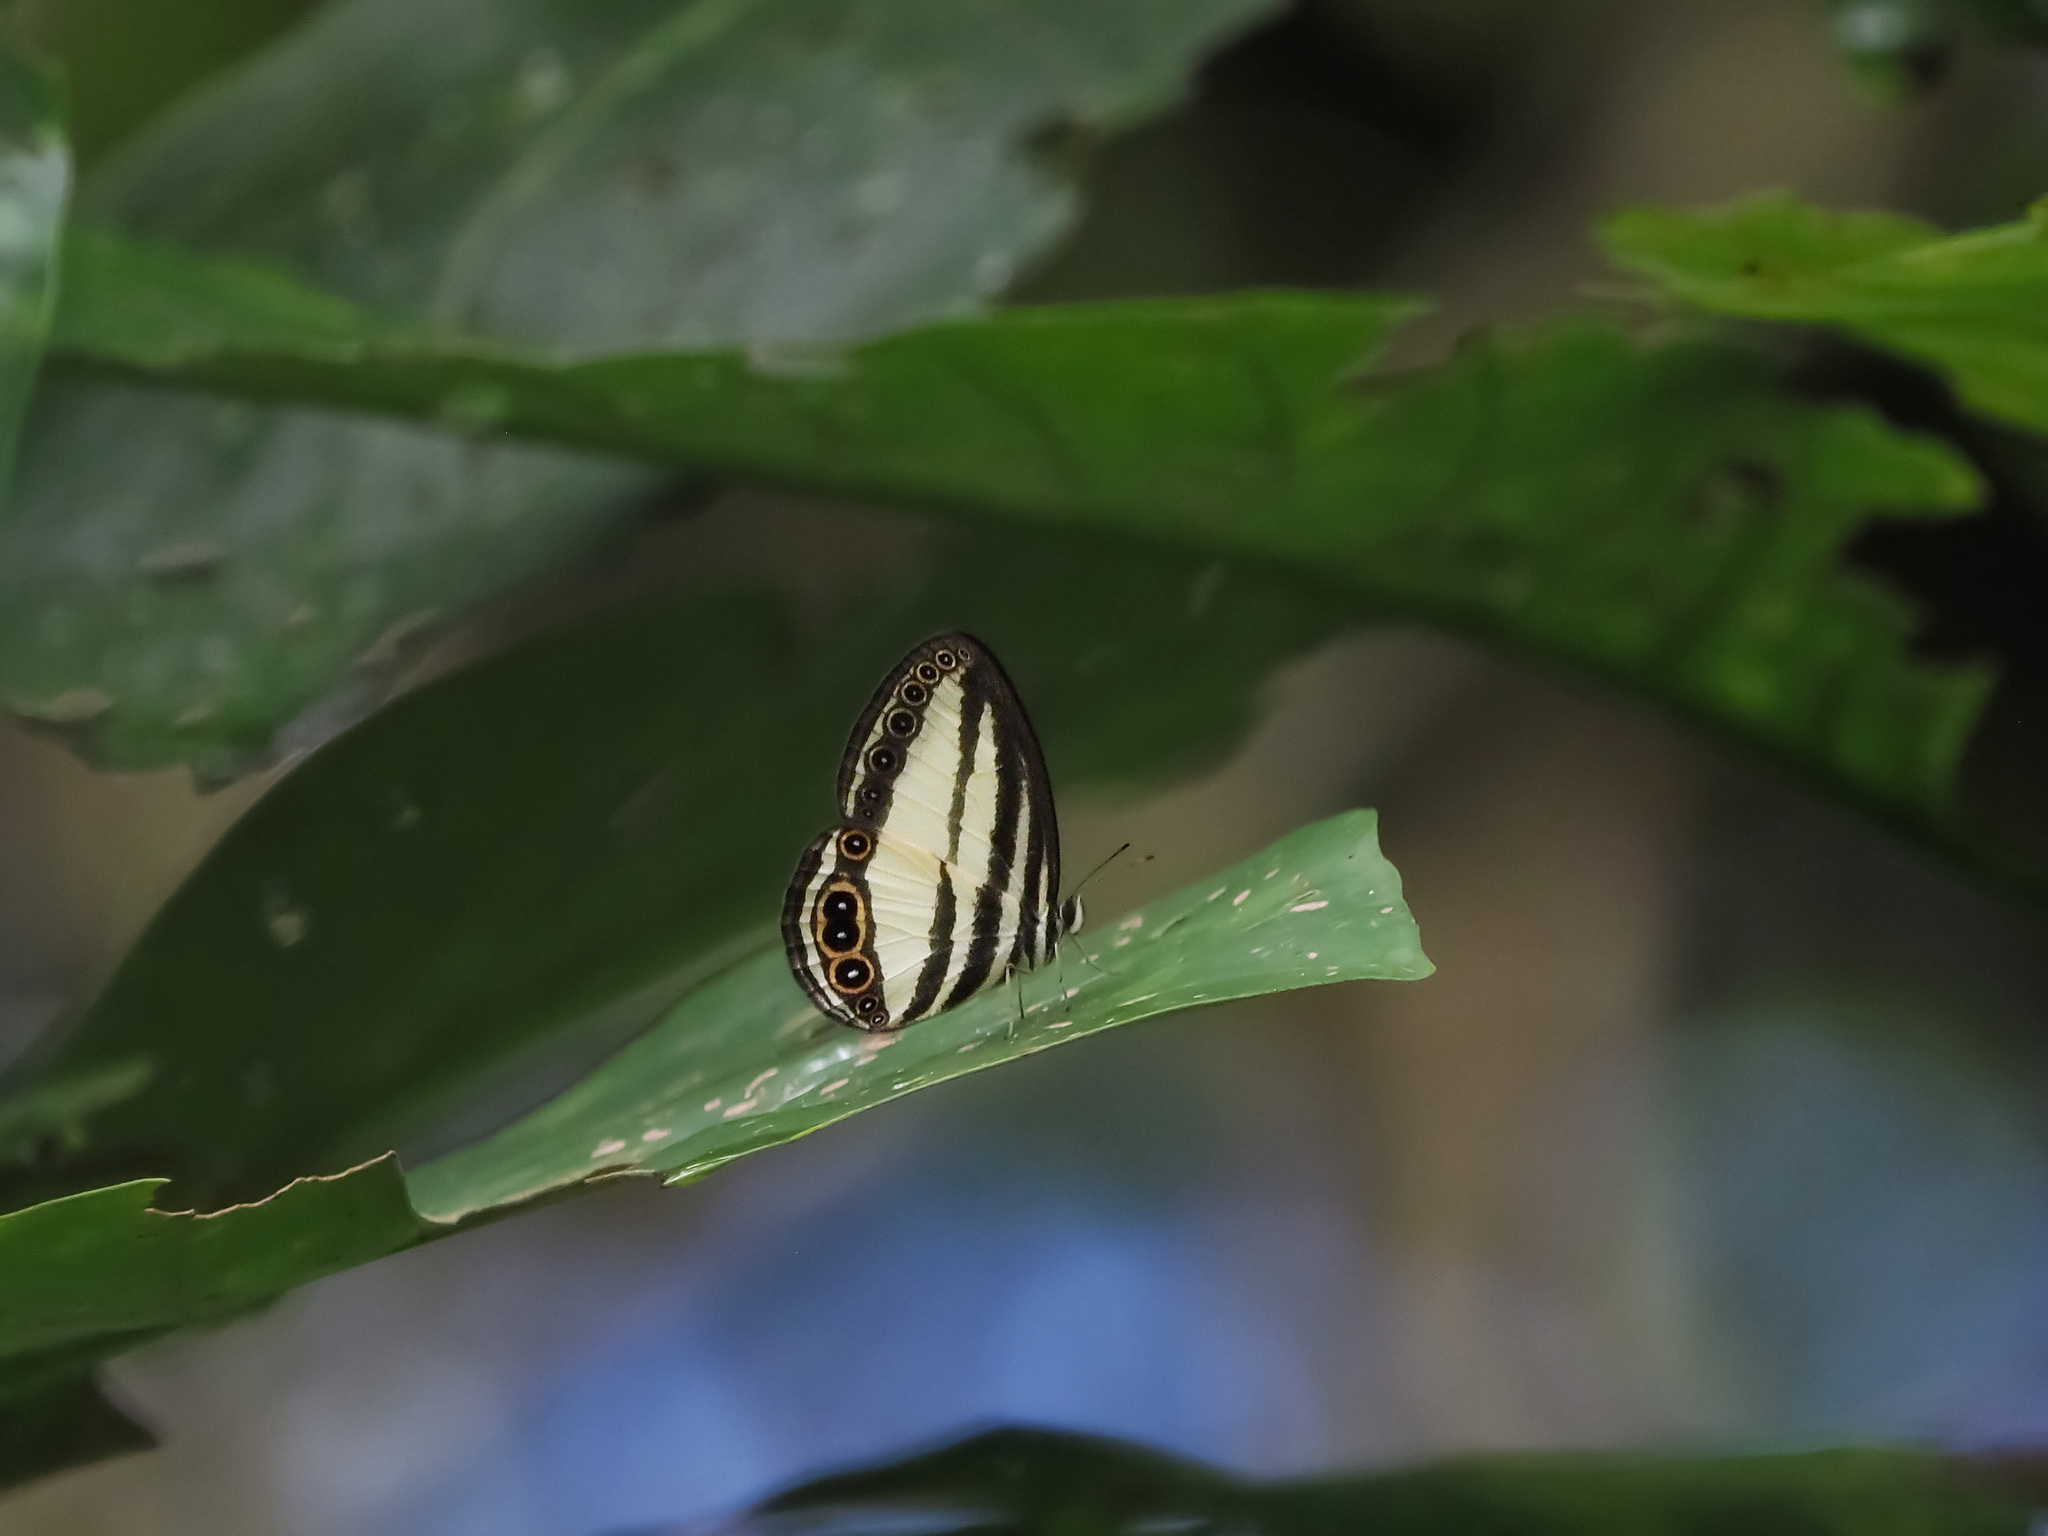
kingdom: Animalia
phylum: Arthropoda
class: Insecta
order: Lepidoptera
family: Nymphalidae
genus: Ragadia
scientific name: Ragadia annulata
